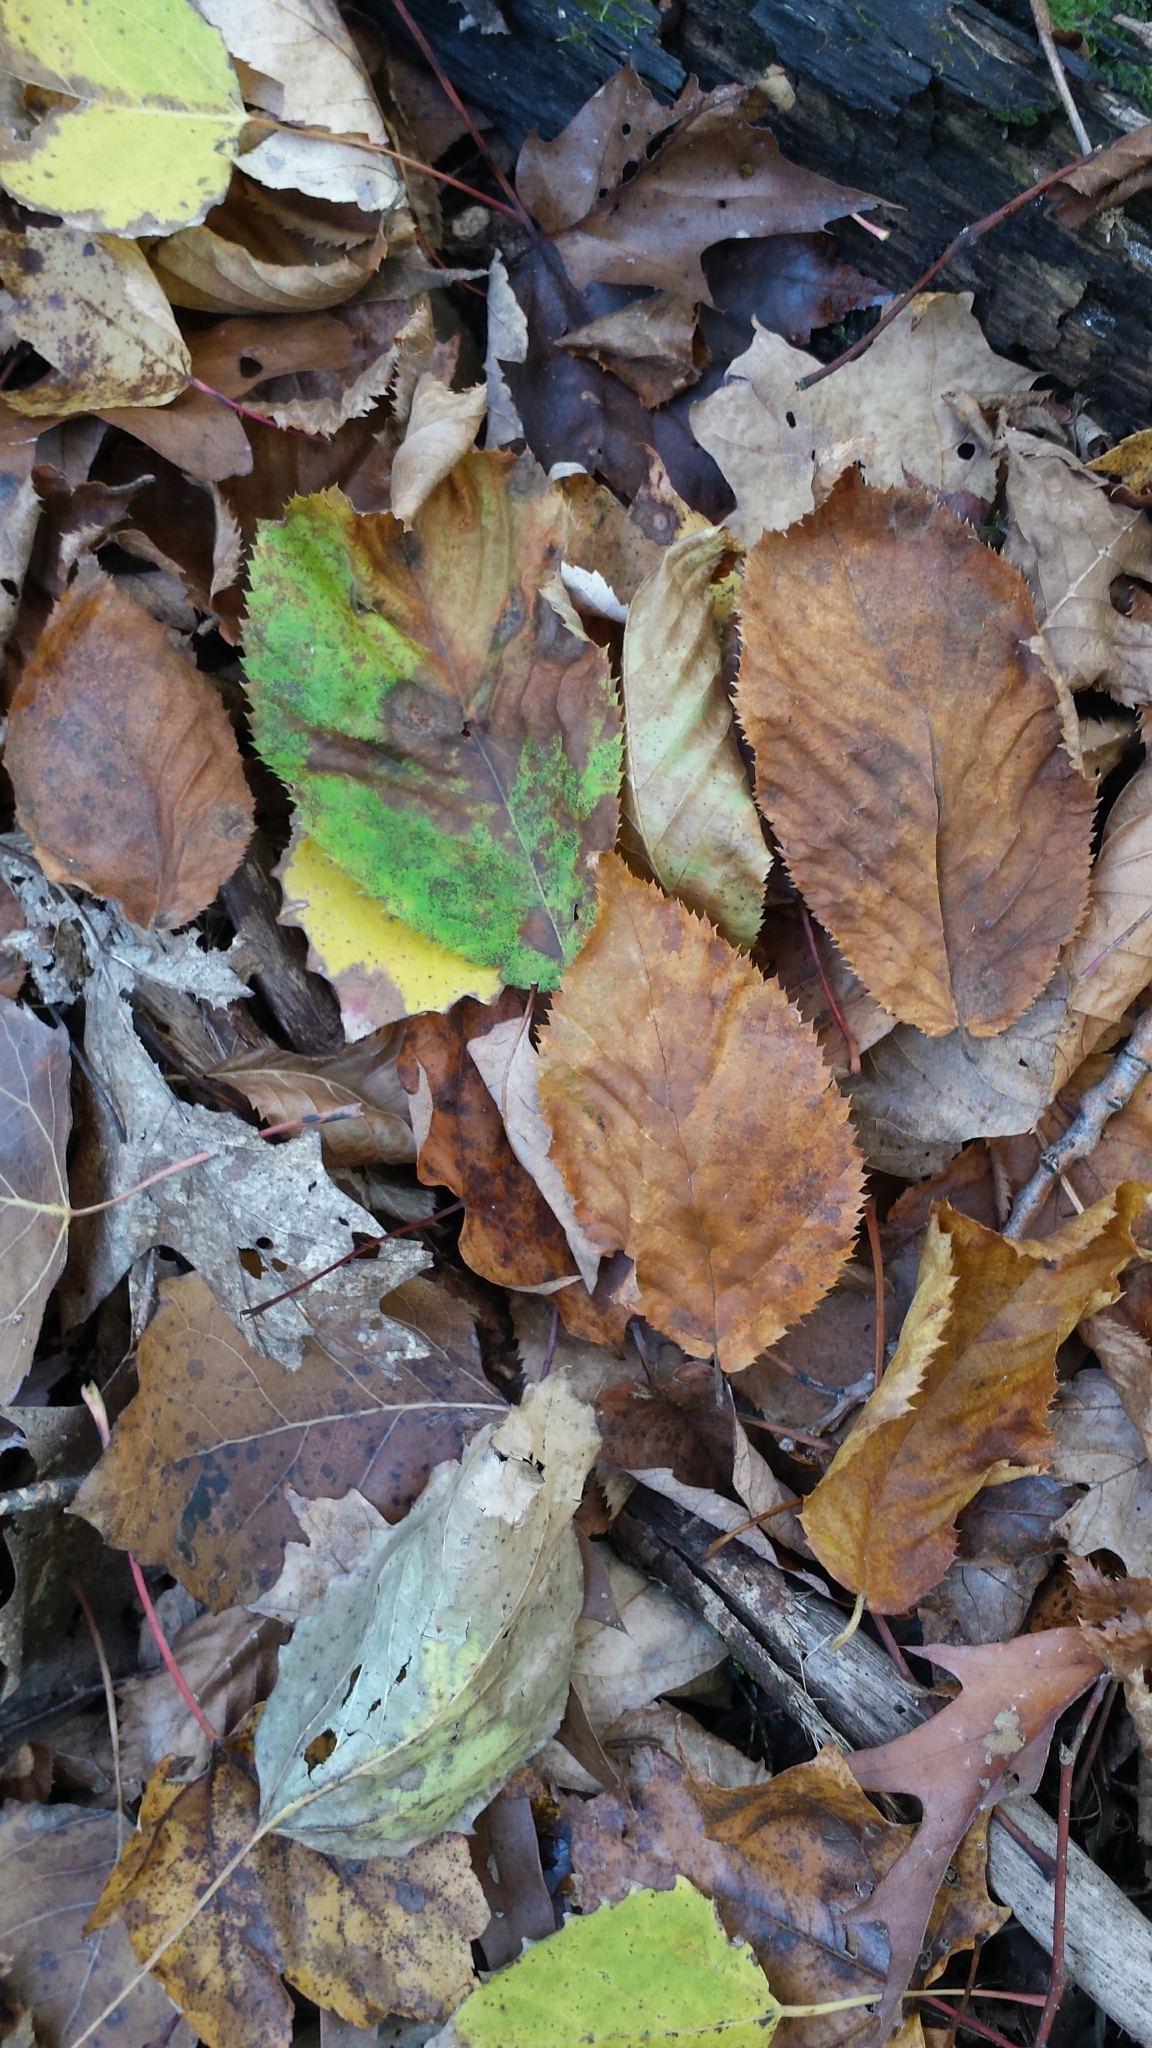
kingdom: Plantae
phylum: Tracheophyta
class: Magnoliopsida
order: Fagales
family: Betulaceae
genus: Ostrya
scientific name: Ostrya virginiana
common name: Ironwood
